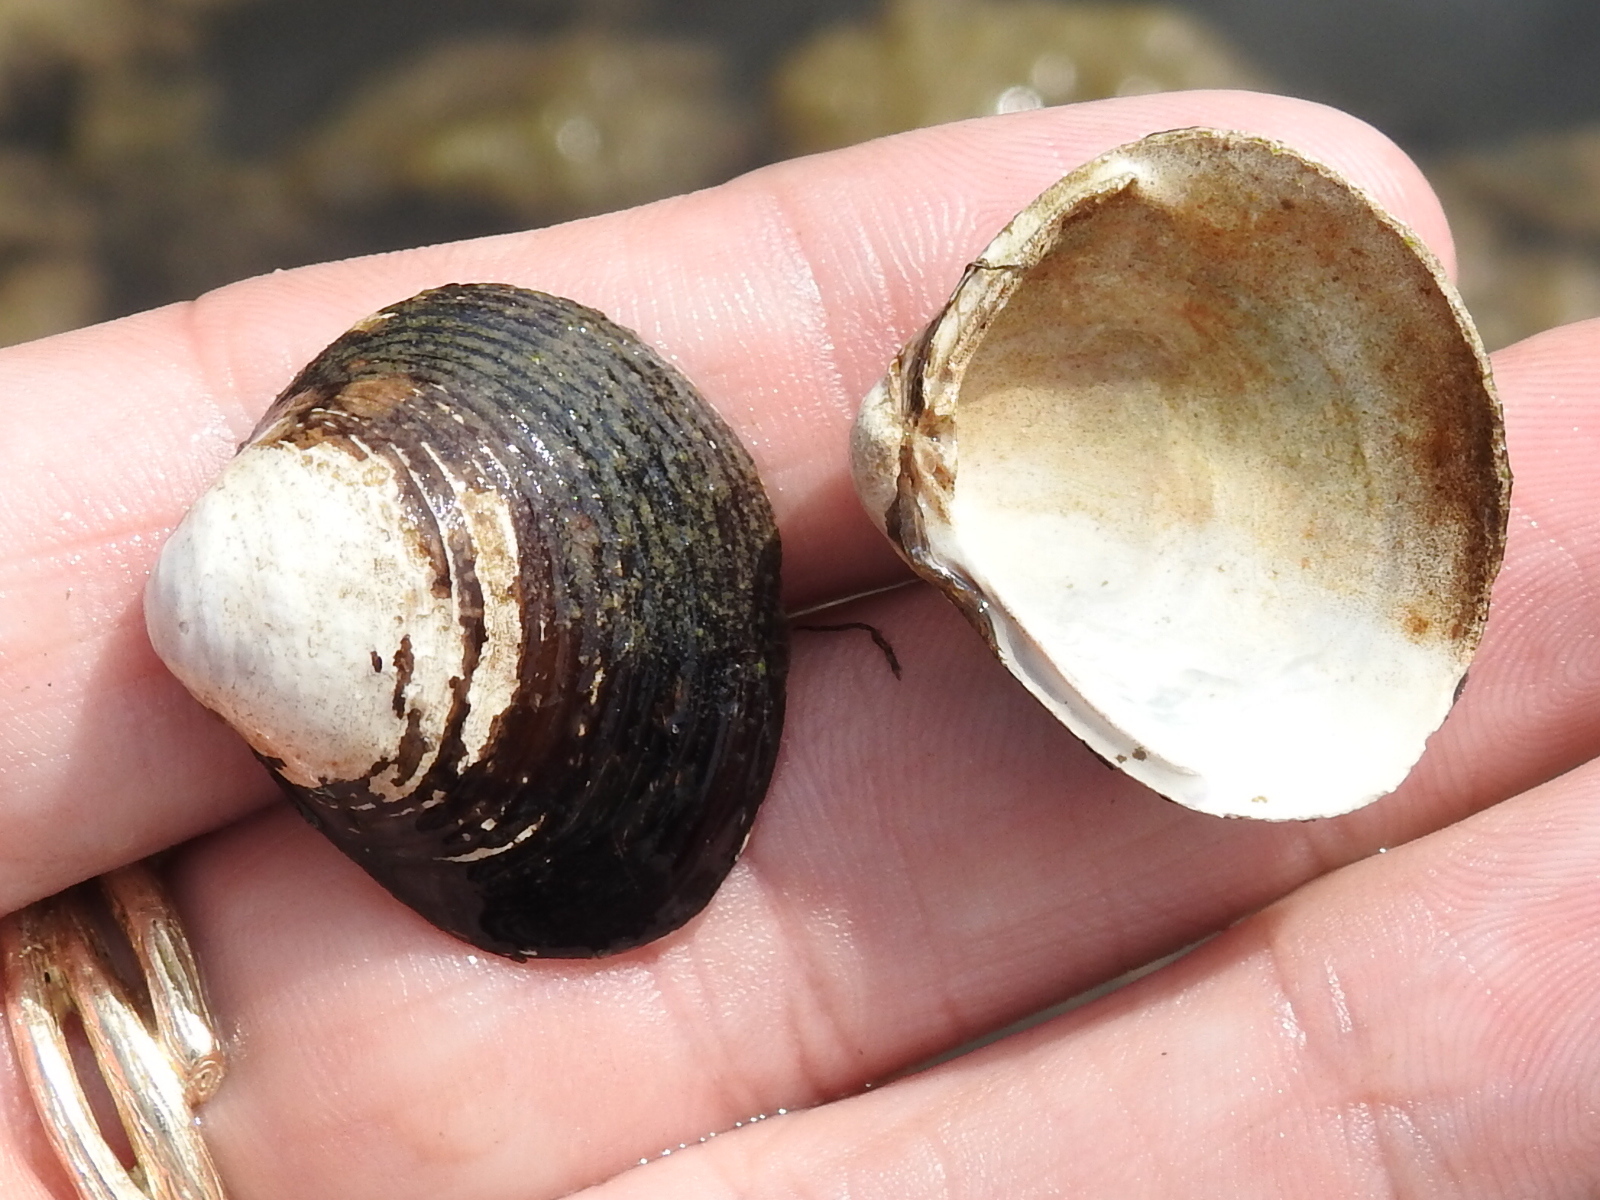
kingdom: Animalia
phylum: Mollusca
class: Bivalvia
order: Venerida
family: Cyrenidae
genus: Corbicula
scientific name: Corbicula fluminea
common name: Asian clam
